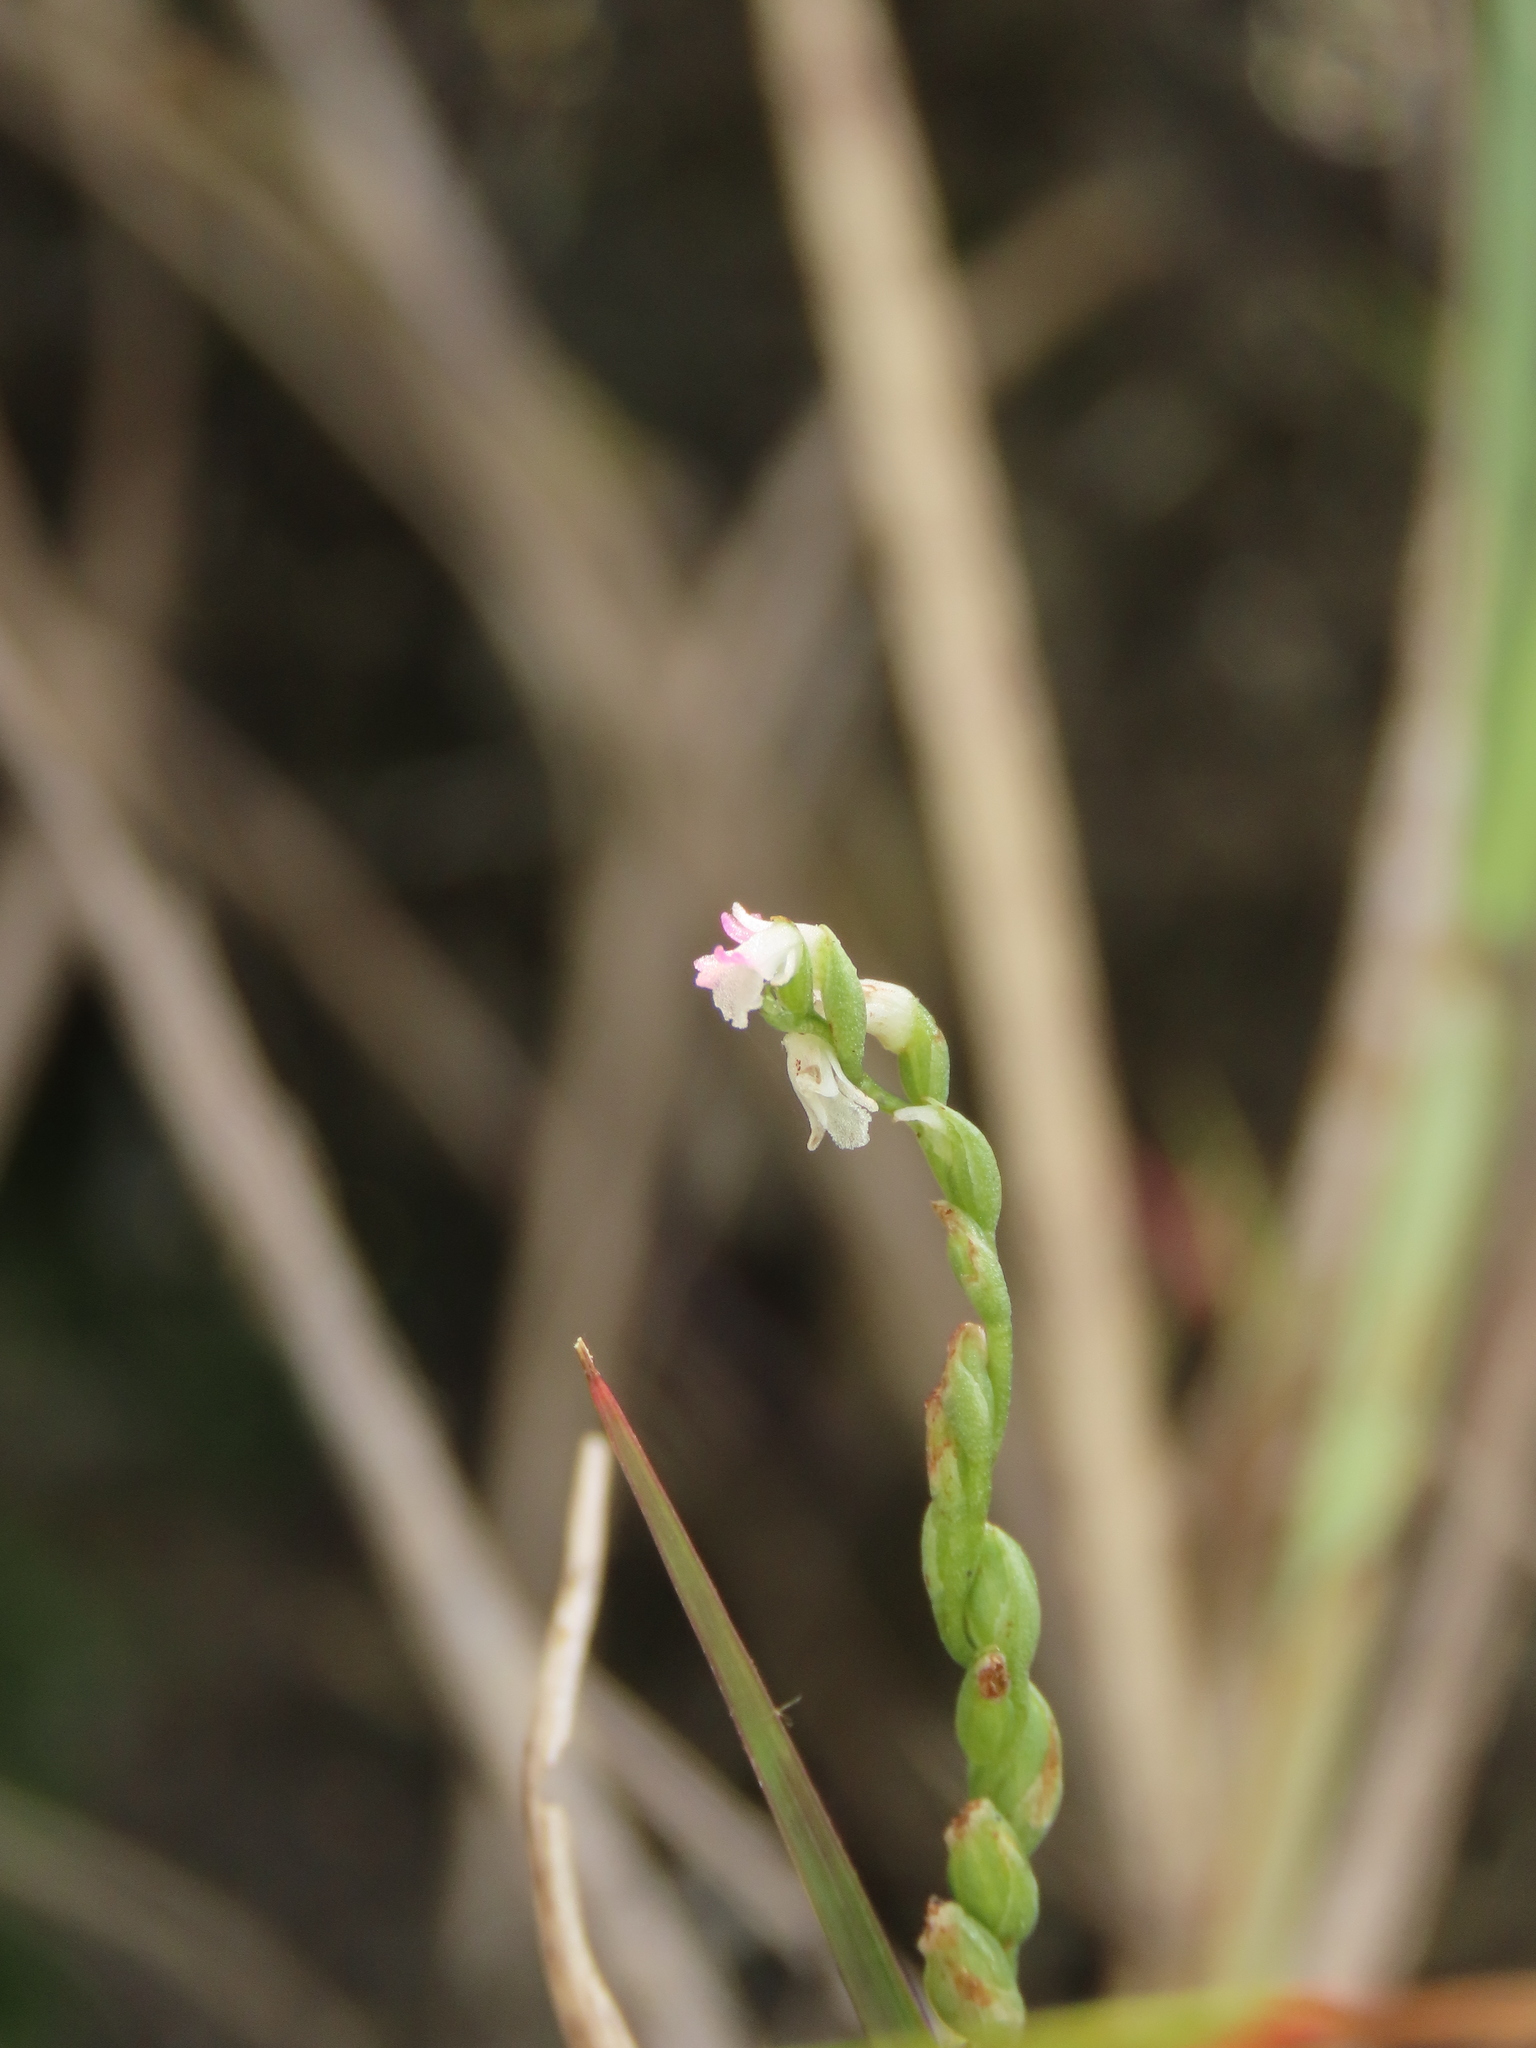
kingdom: Plantae
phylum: Tracheophyta
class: Liliopsida
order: Asparagales
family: Orchidaceae
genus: Spiranthes
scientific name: Spiranthes sinensis
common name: Chinese spiranthes
